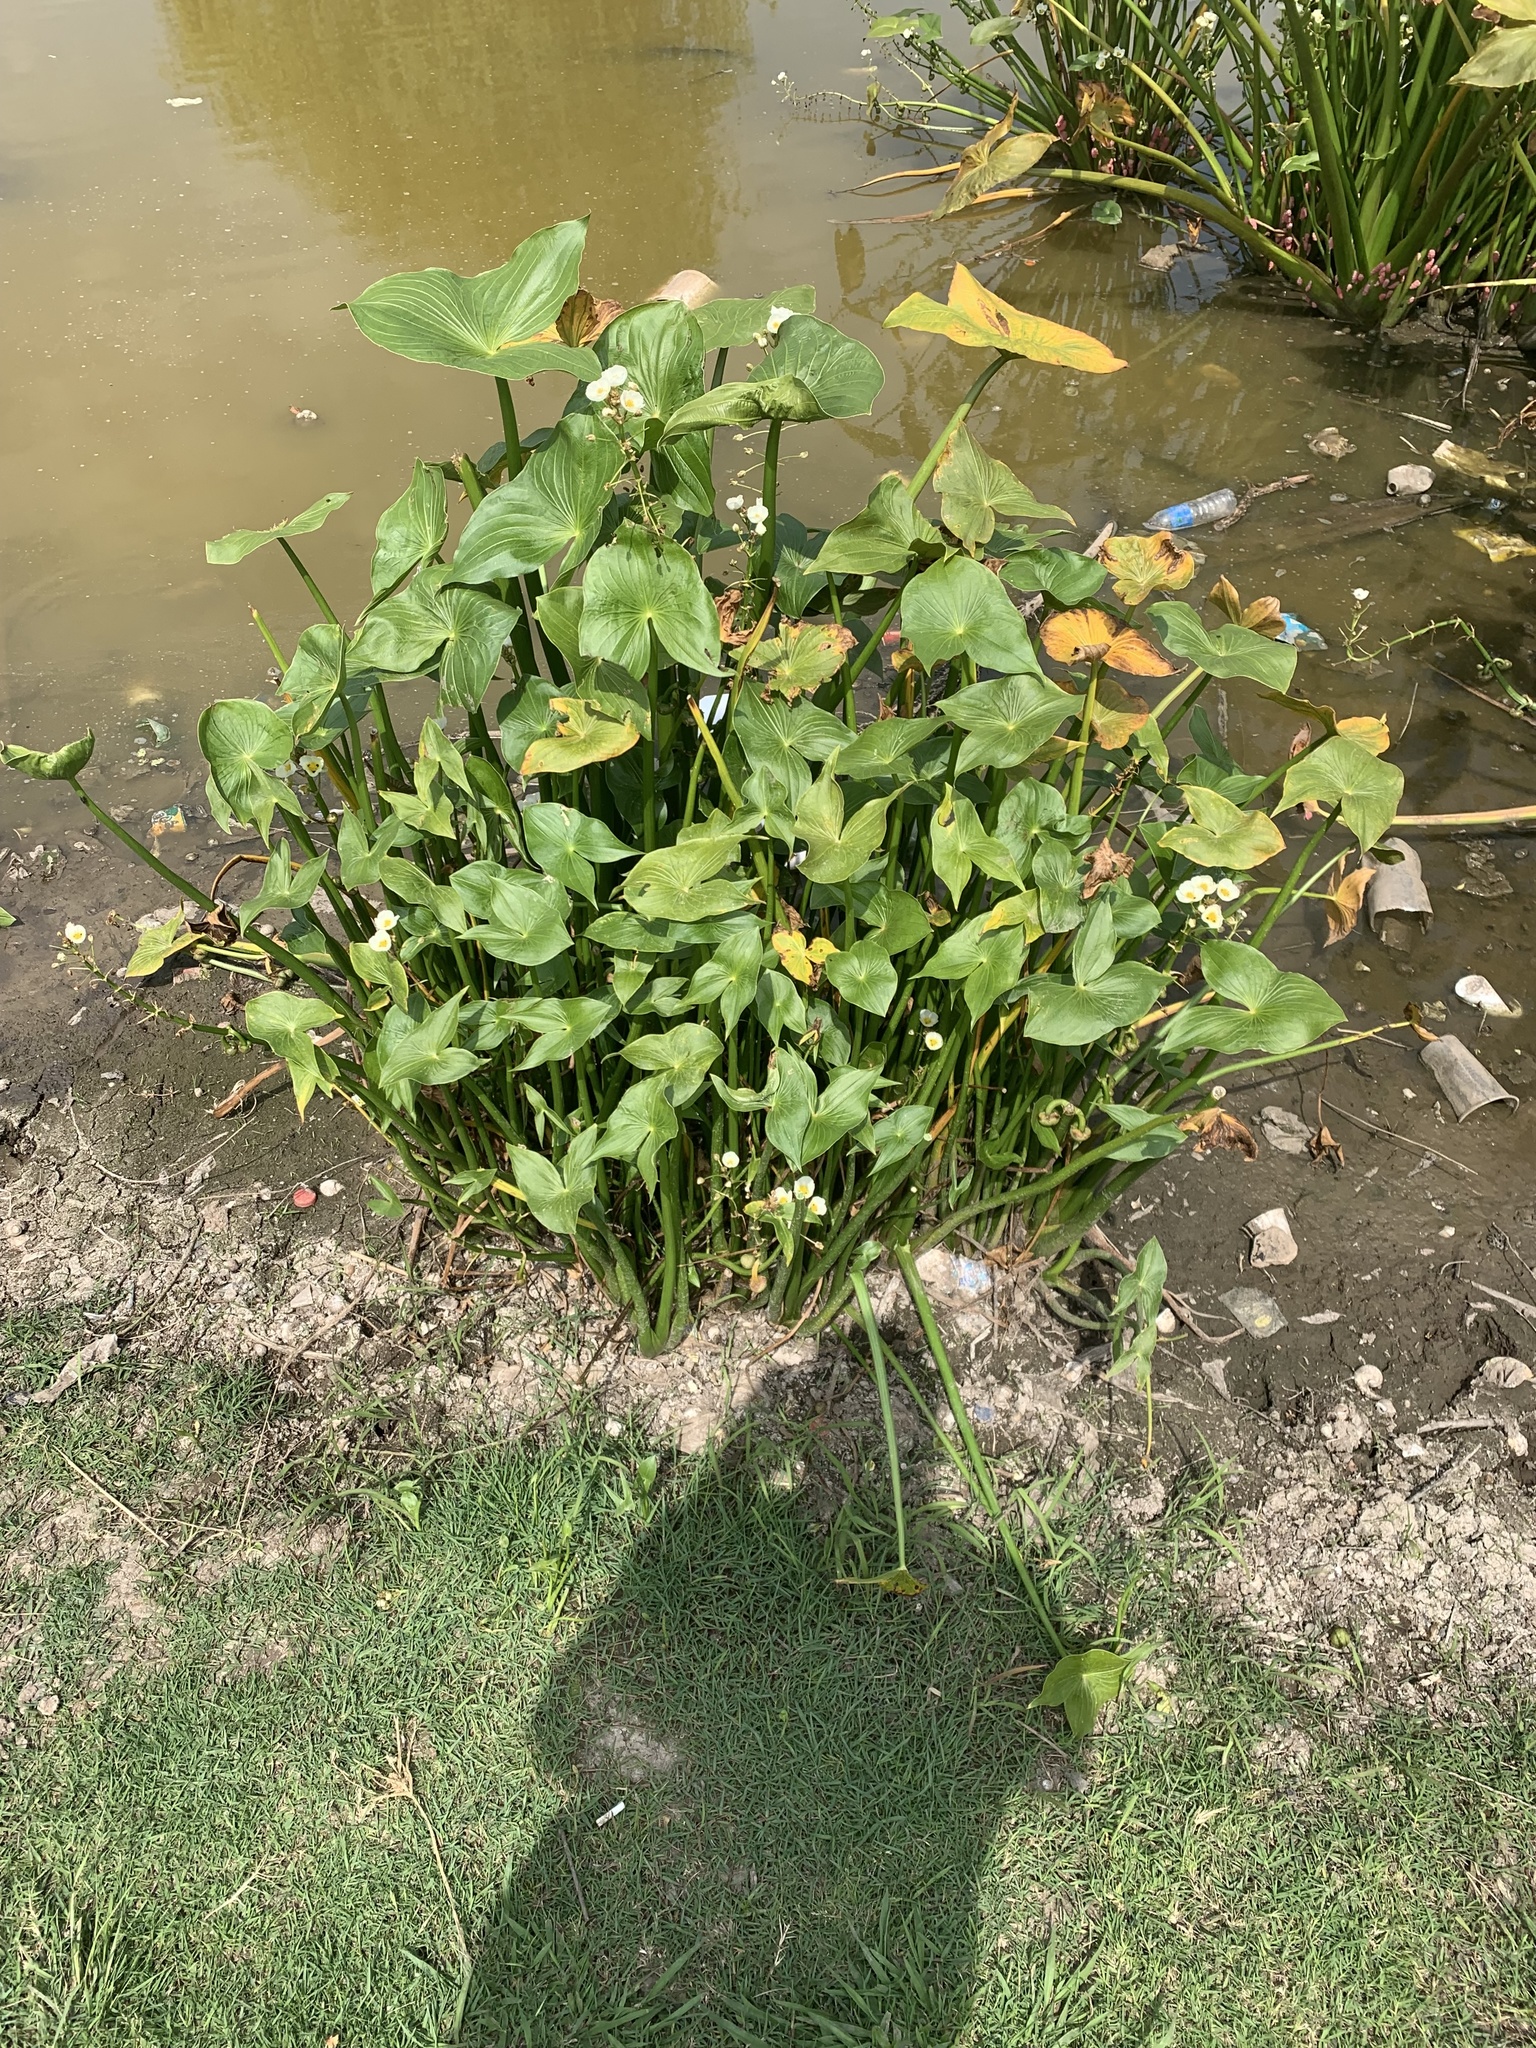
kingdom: Plantae
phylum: Tracheophyta
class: Liliopsida
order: Alismatales
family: Alismataceae
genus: Sagittaria
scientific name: Sagittaria montevidensis
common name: Giant arrowhead
